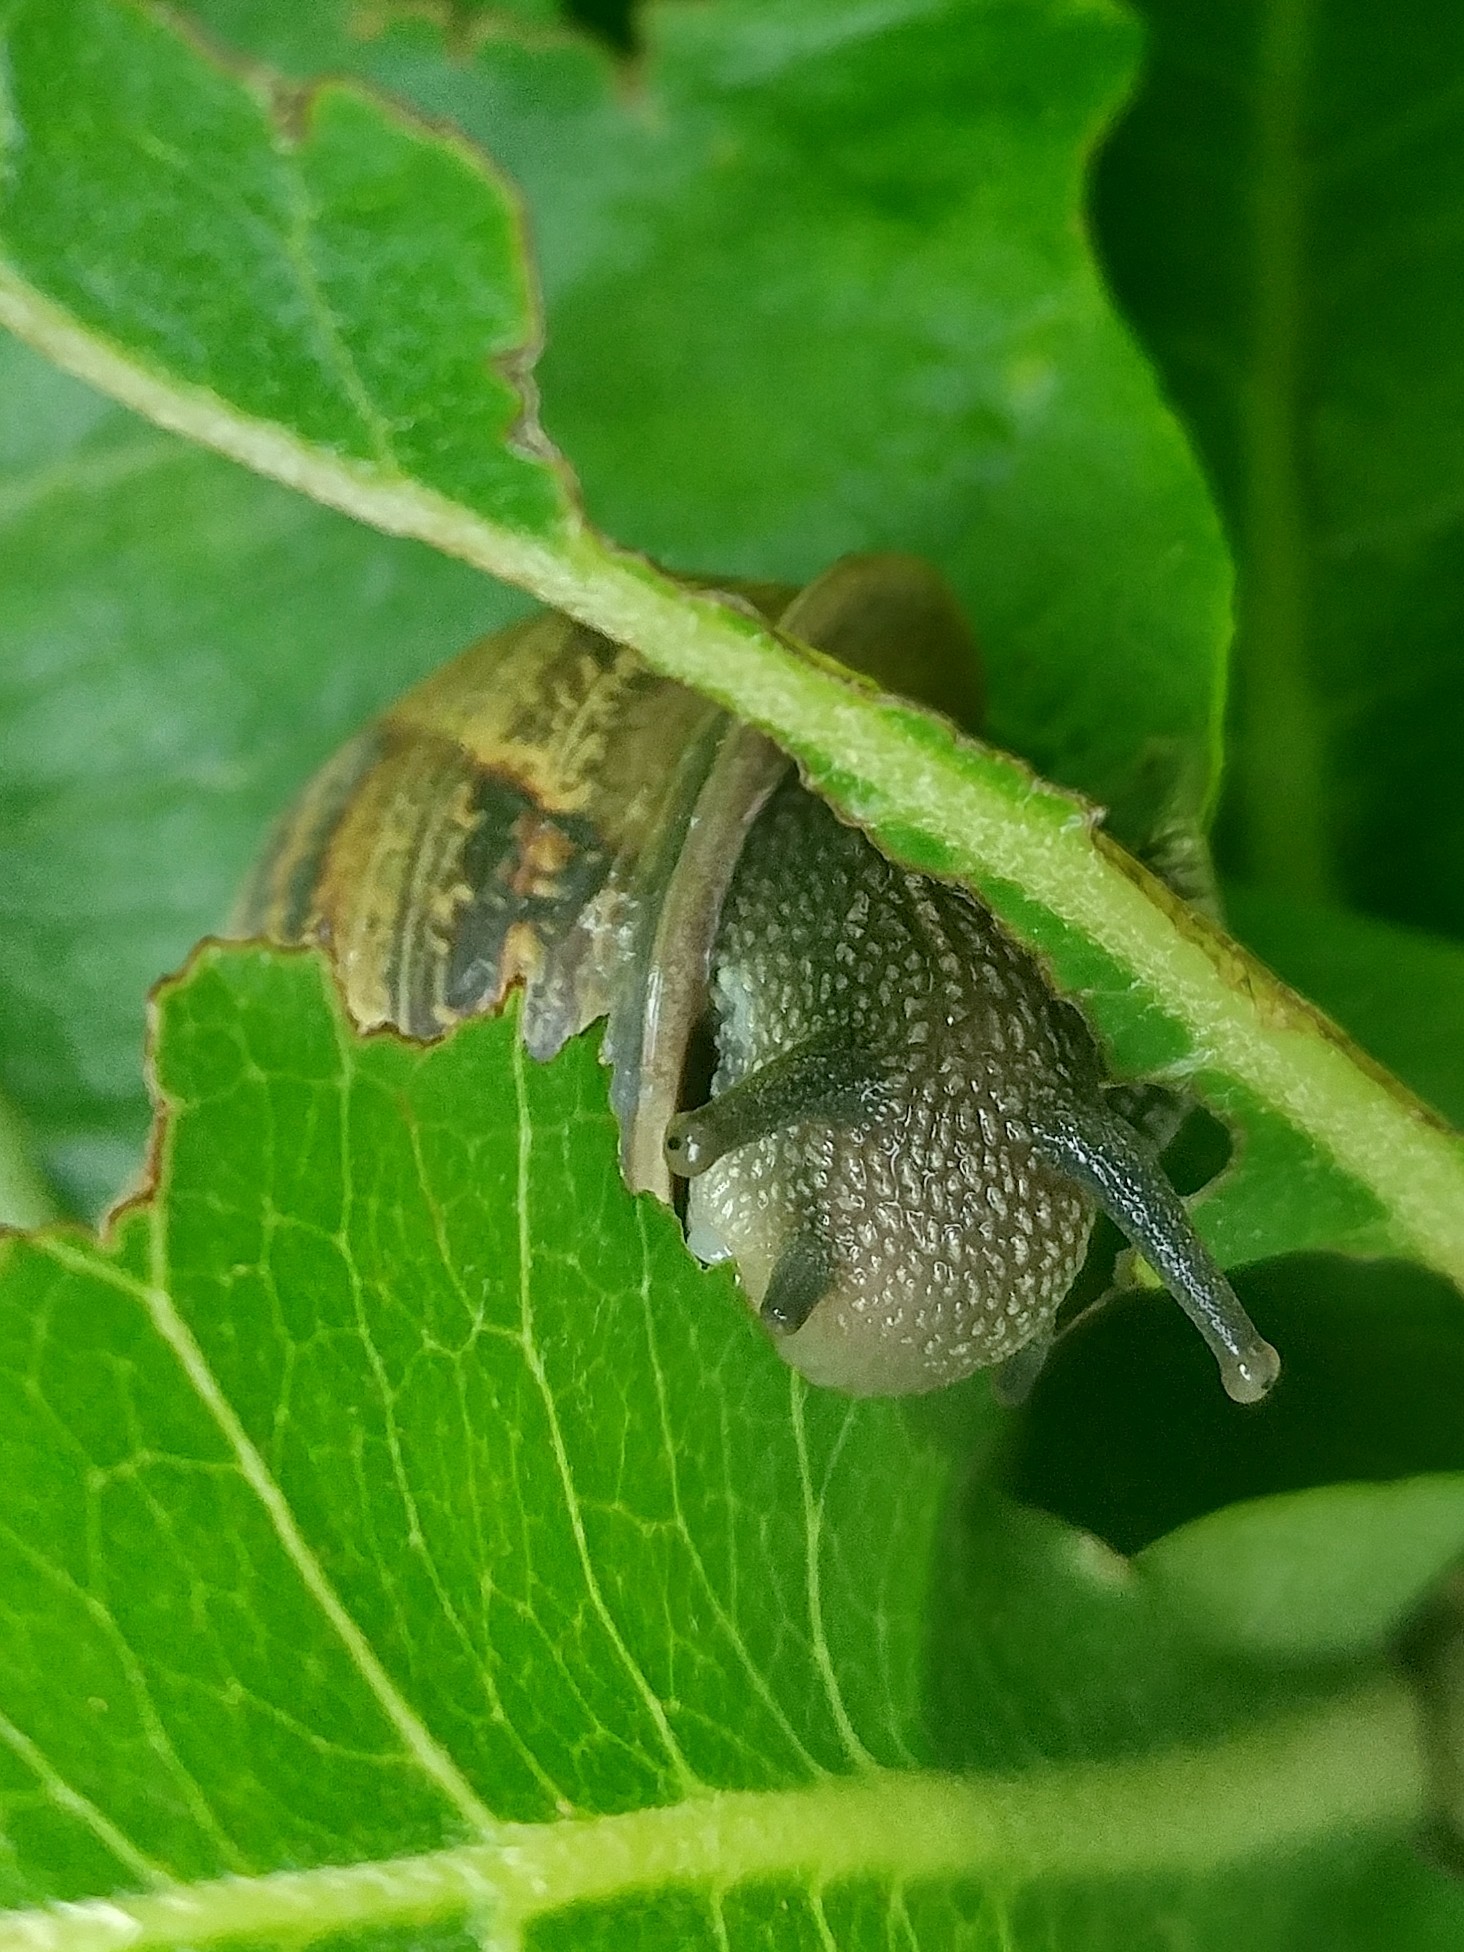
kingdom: Animalia
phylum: Mollusca
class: Gastropoda
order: Stylommatophora
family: Helicidae
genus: Cornu
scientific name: Cornu aspersum
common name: Brown garden snail
